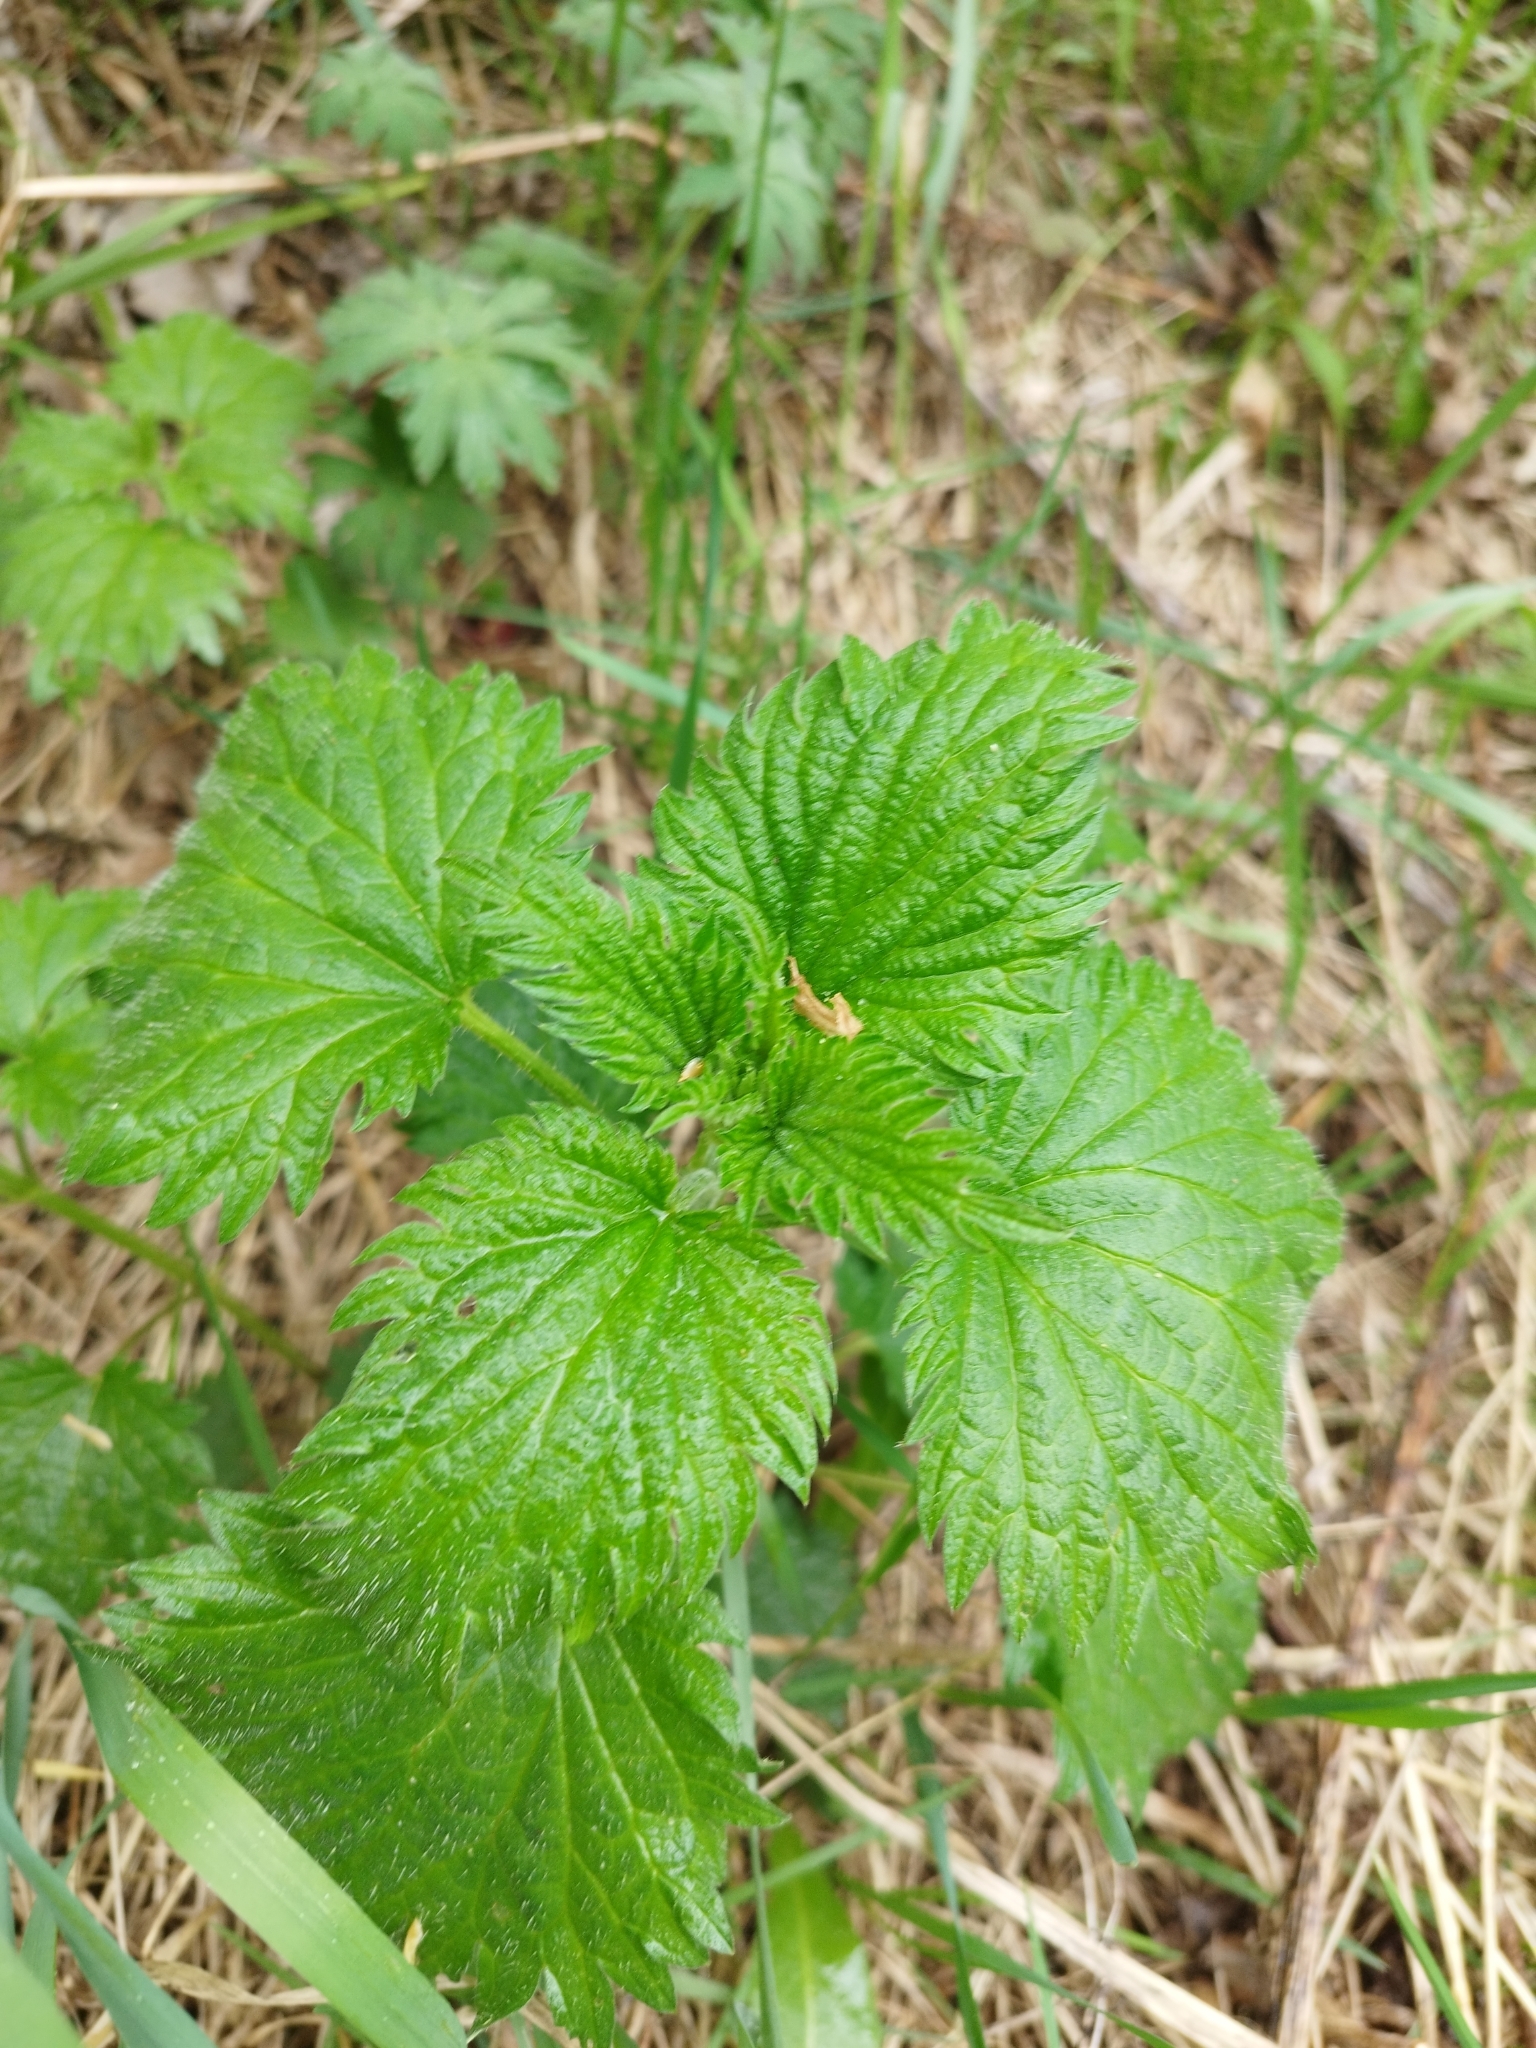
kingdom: Plantae
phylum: Tracheophyta
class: Magnoliopsida
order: Rosales
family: Urticaceae
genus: Urtica
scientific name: Urtica dioica
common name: Common nettle
